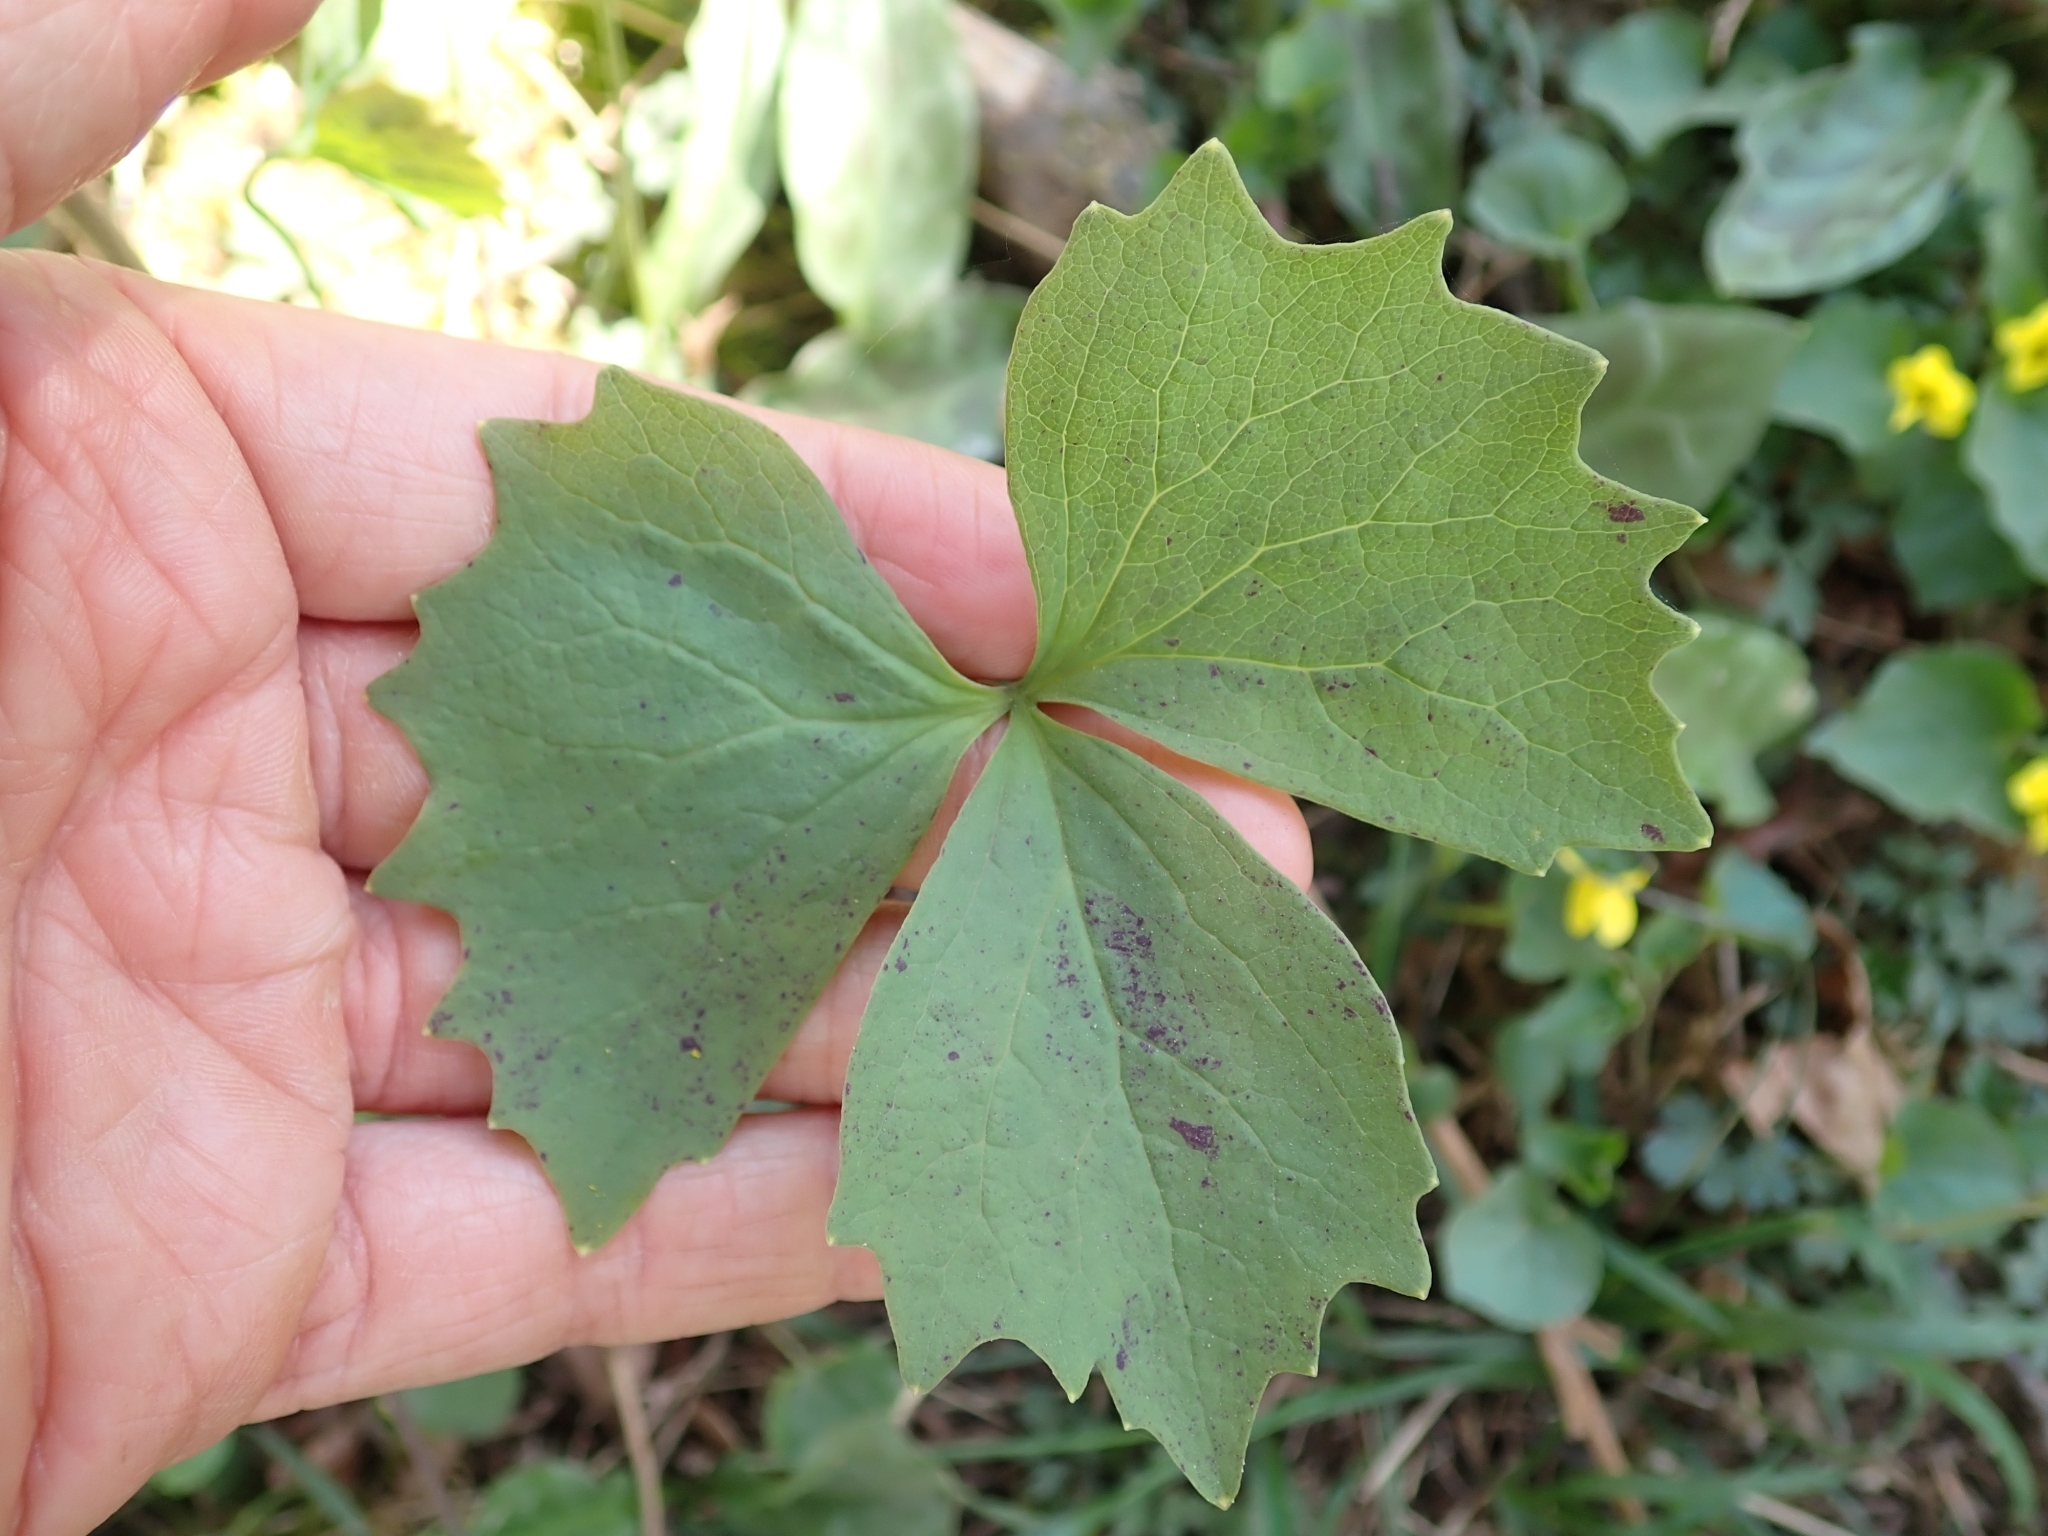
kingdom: Plantae
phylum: Tracheophyta
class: Magnoliopsida
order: Ranunculales
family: Berberidaceae
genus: Achlys
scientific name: Achlys triphylla
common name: Vanilla-leaf
